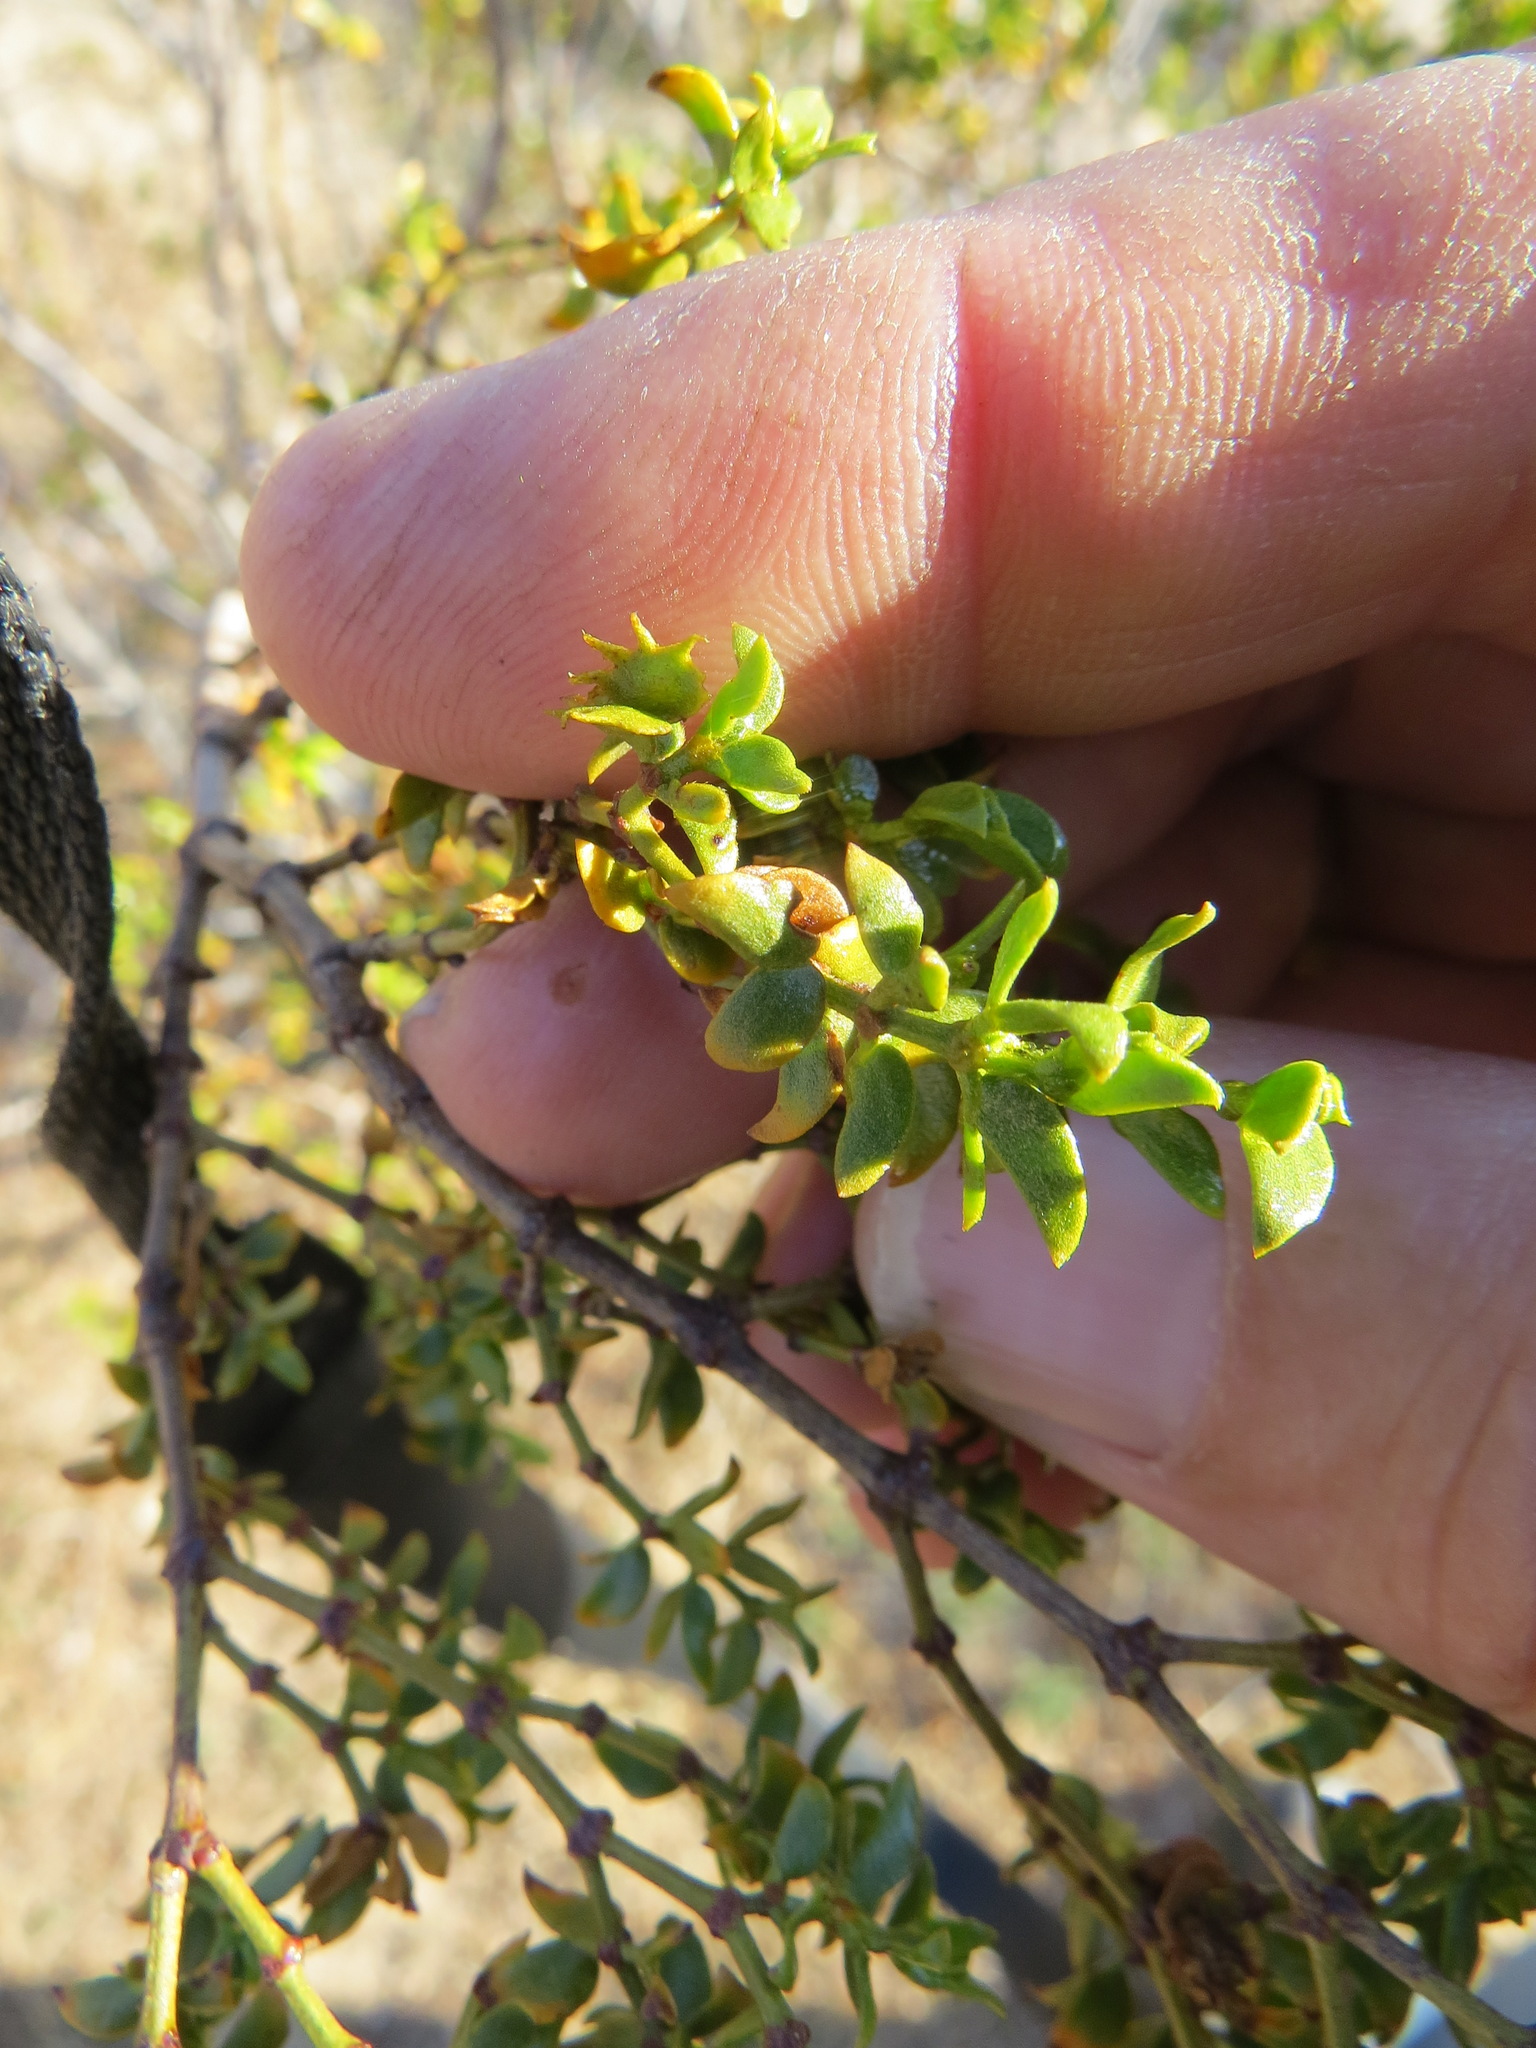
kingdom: Animalia
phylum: Arthropoda
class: Insecta
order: Diptera
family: Cecidomyiidae
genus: Asphondylia
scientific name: Asphondylia digitata
